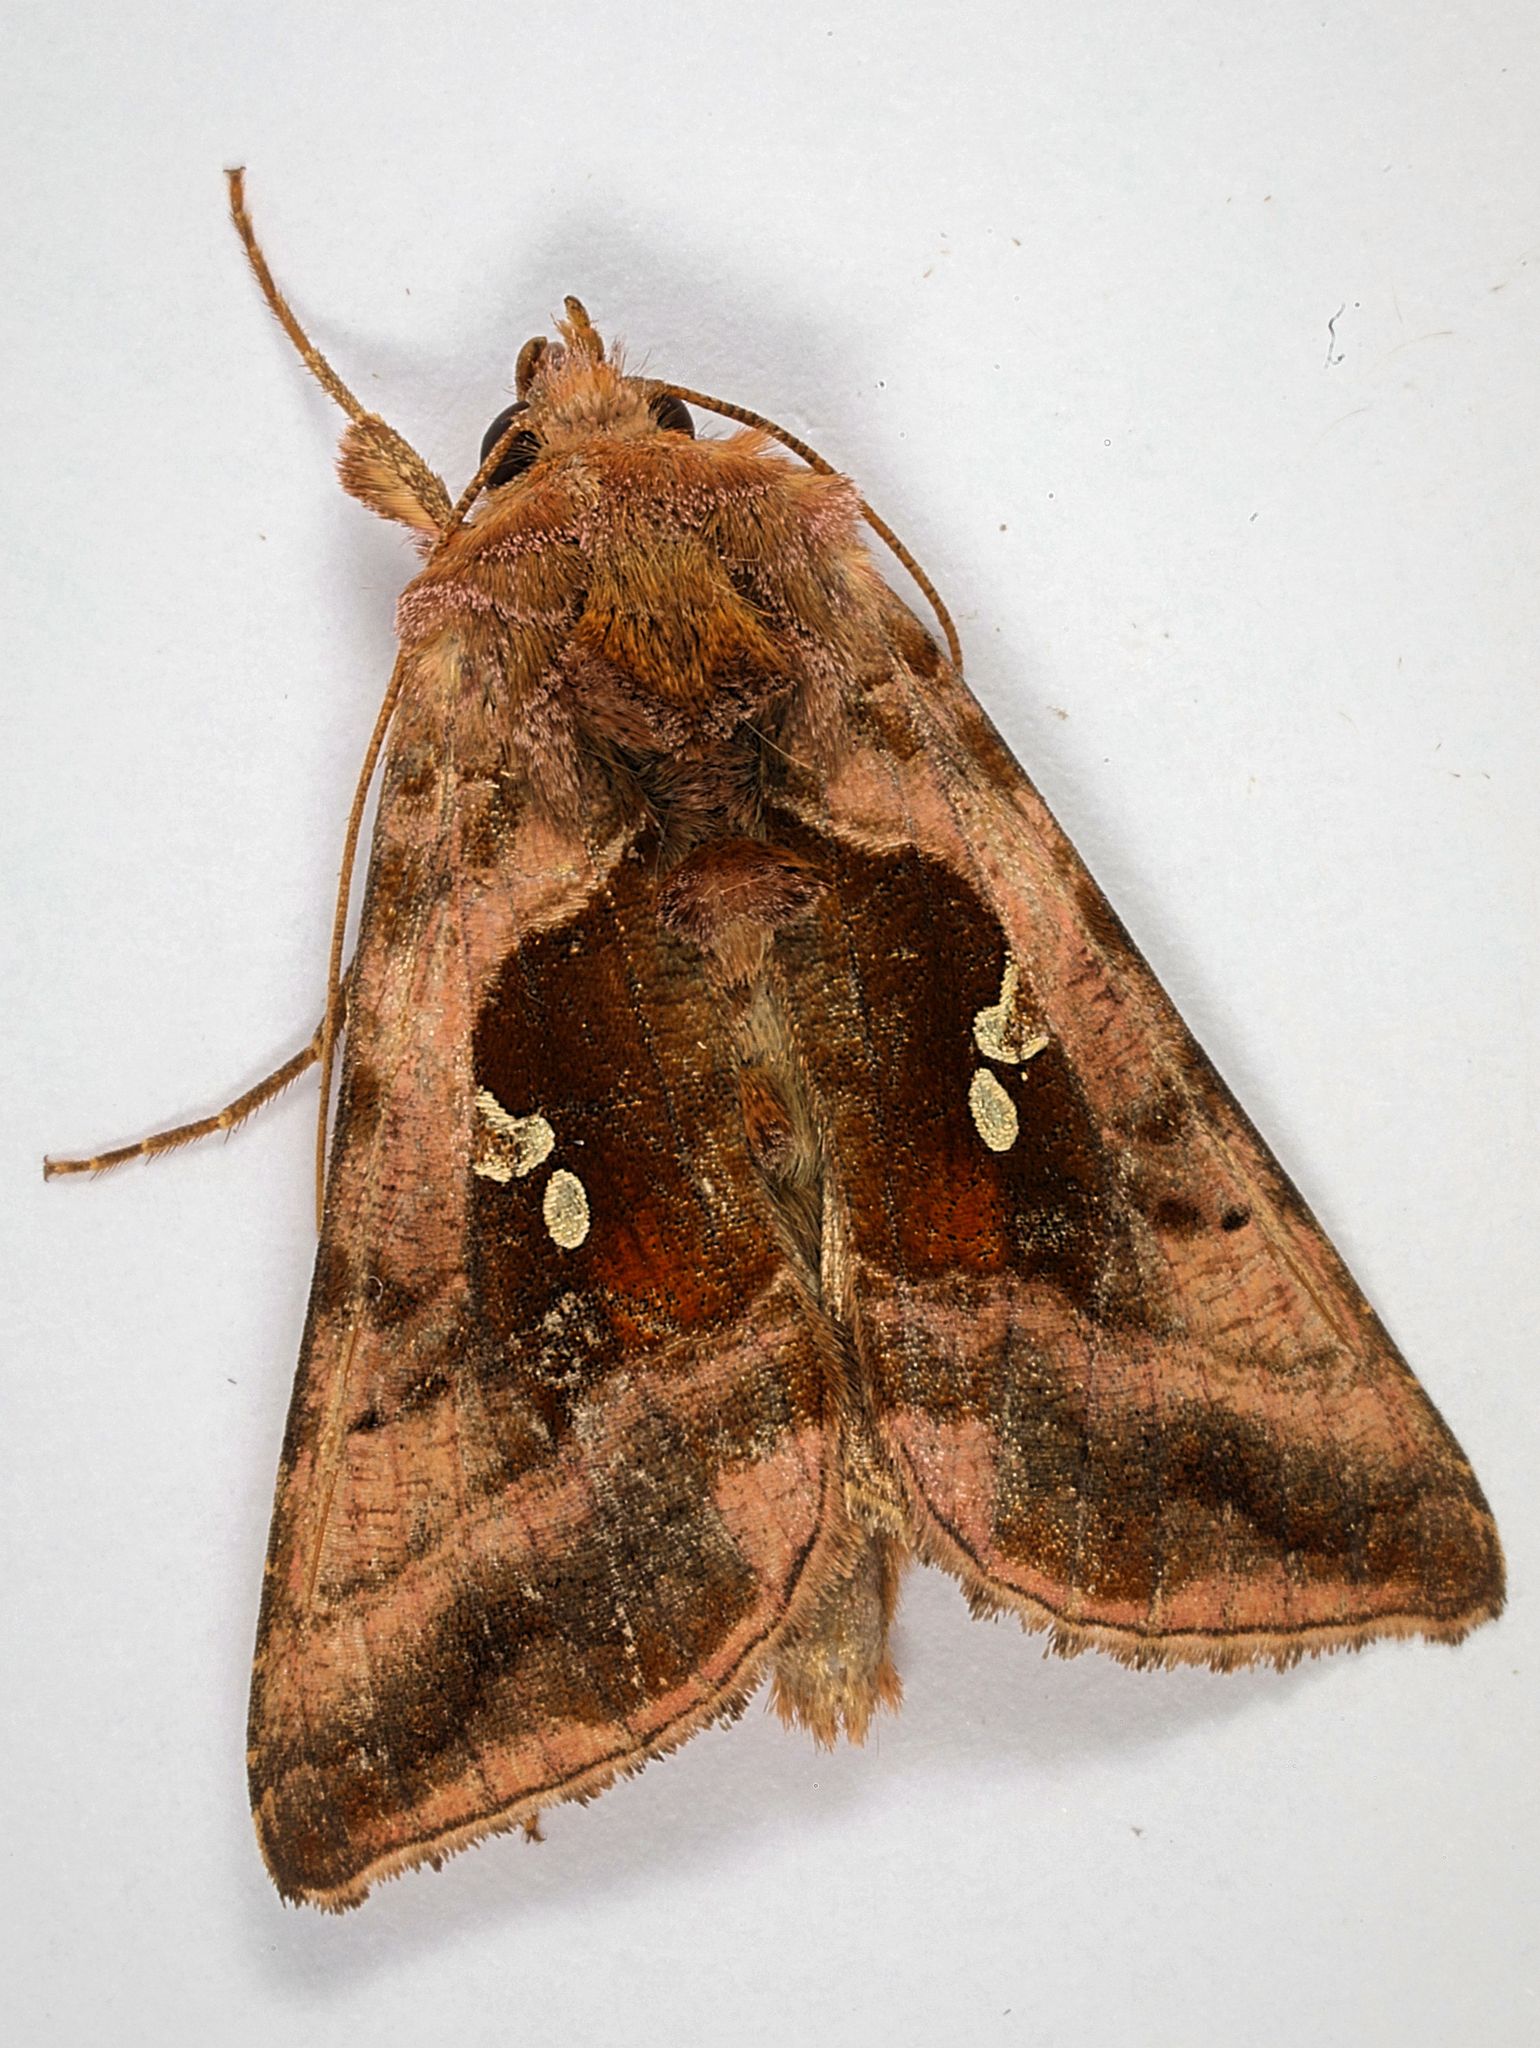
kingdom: Animalia
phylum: Arthropoda
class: Insecta
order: Lepidoptera
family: Noctuidae
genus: Autographa
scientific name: Autographa jota
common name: Plain golden y
